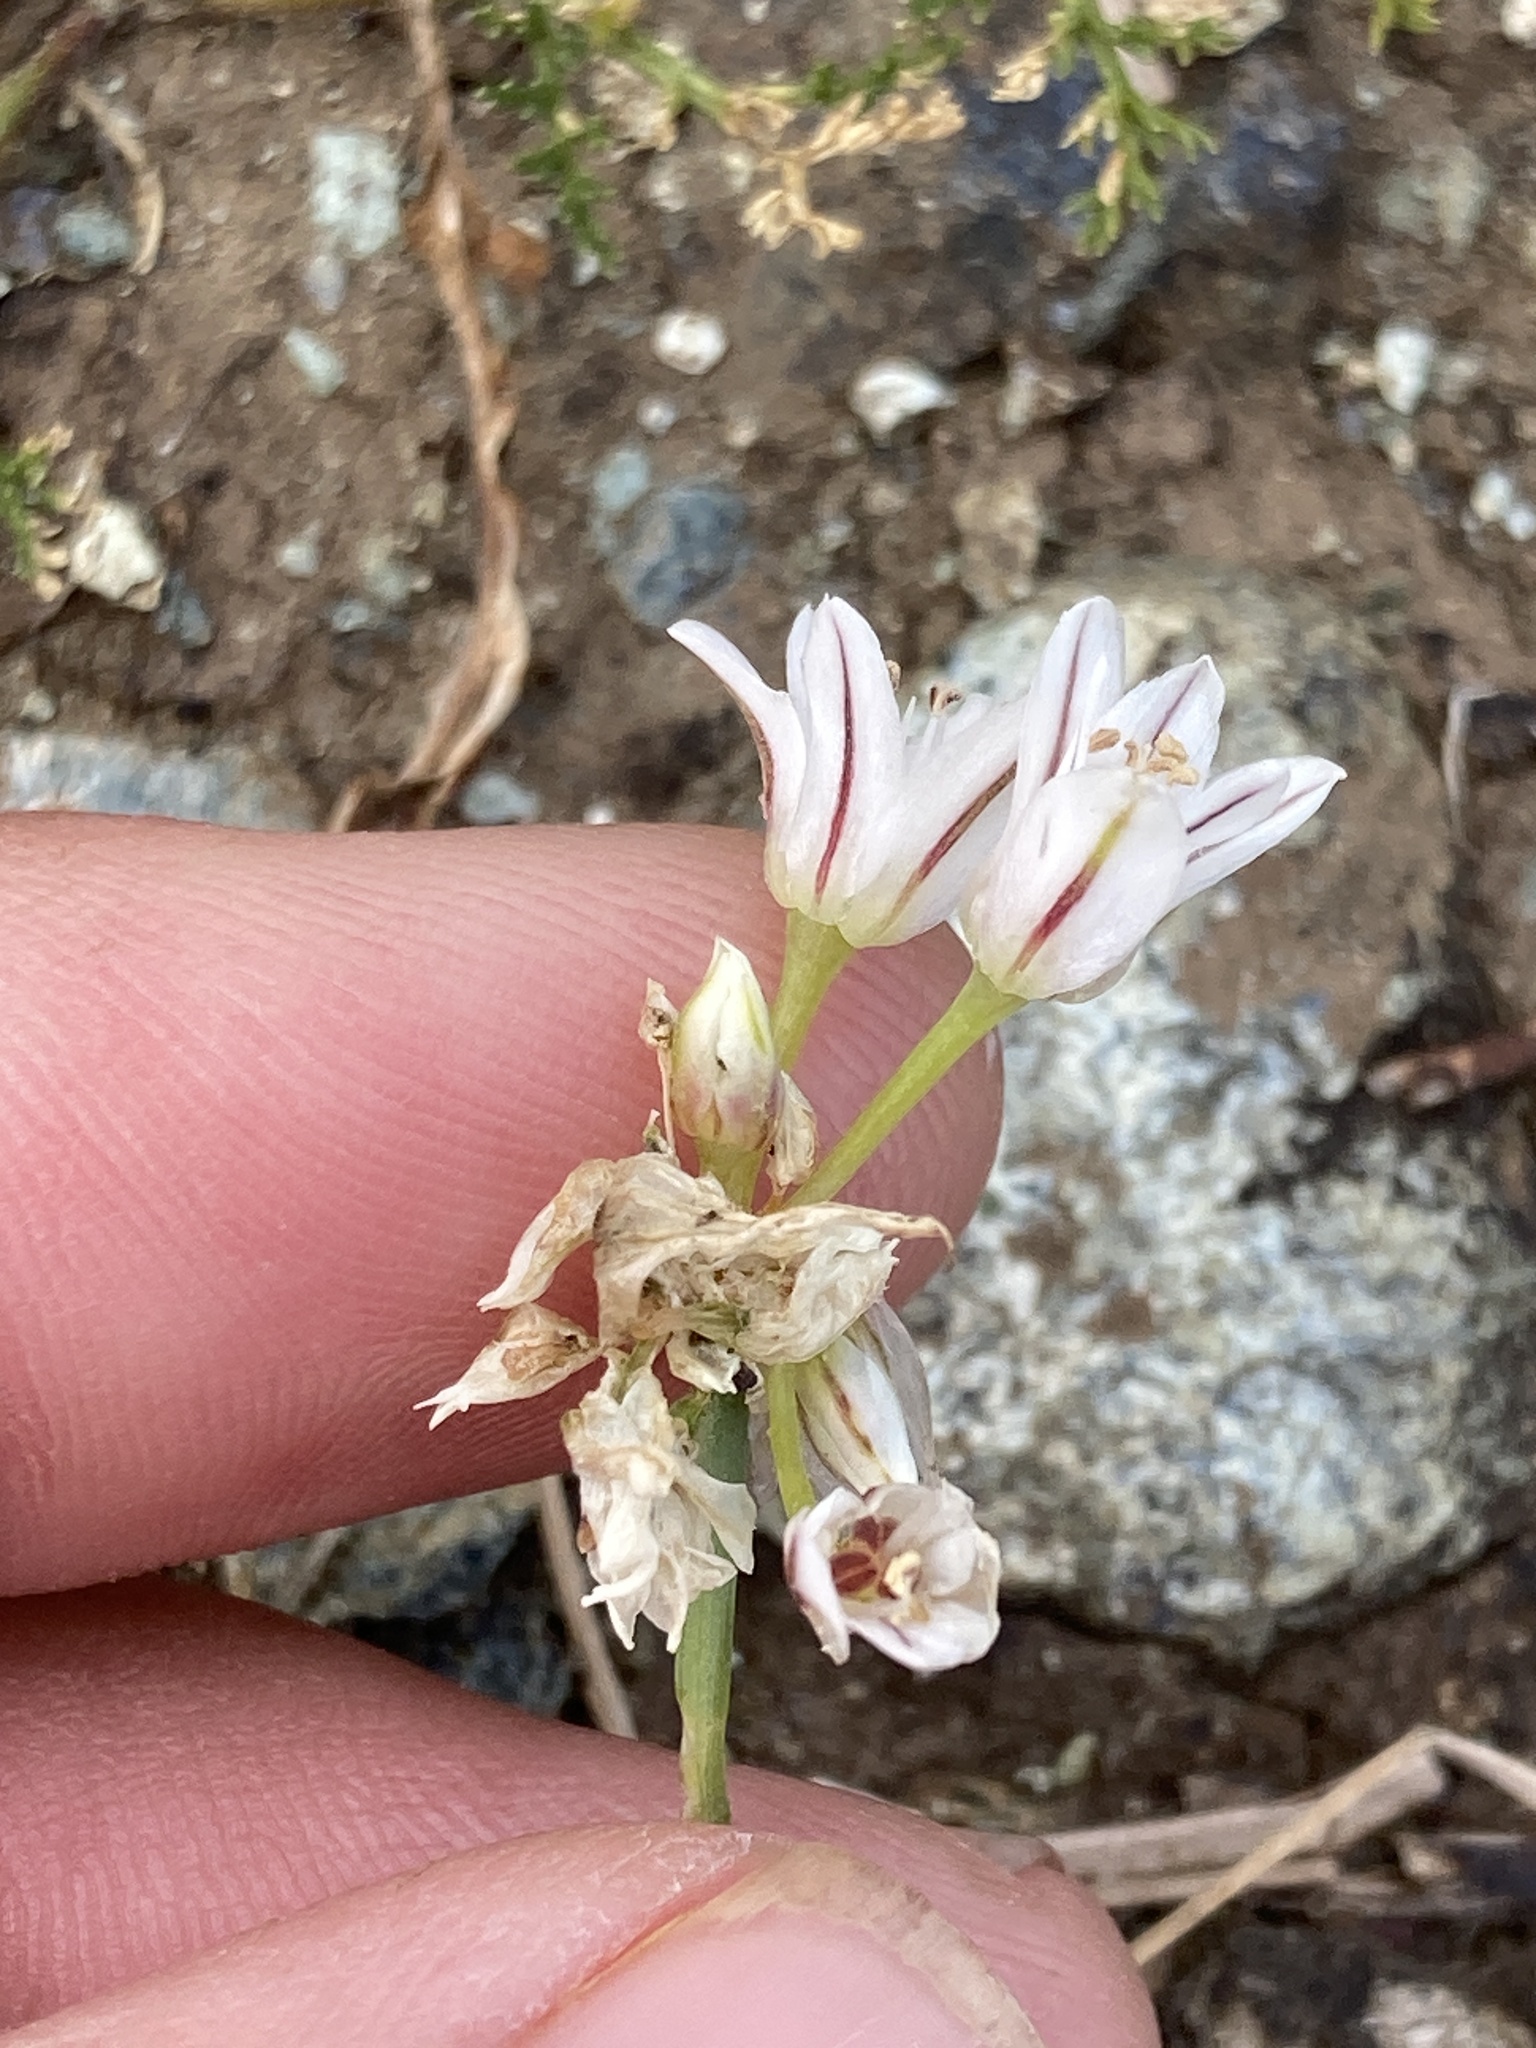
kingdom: Plantae
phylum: Tracheophyta
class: Liliopsida
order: Asparagales
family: Amaryllidaceae
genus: Allium
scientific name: Allium lacunosum
